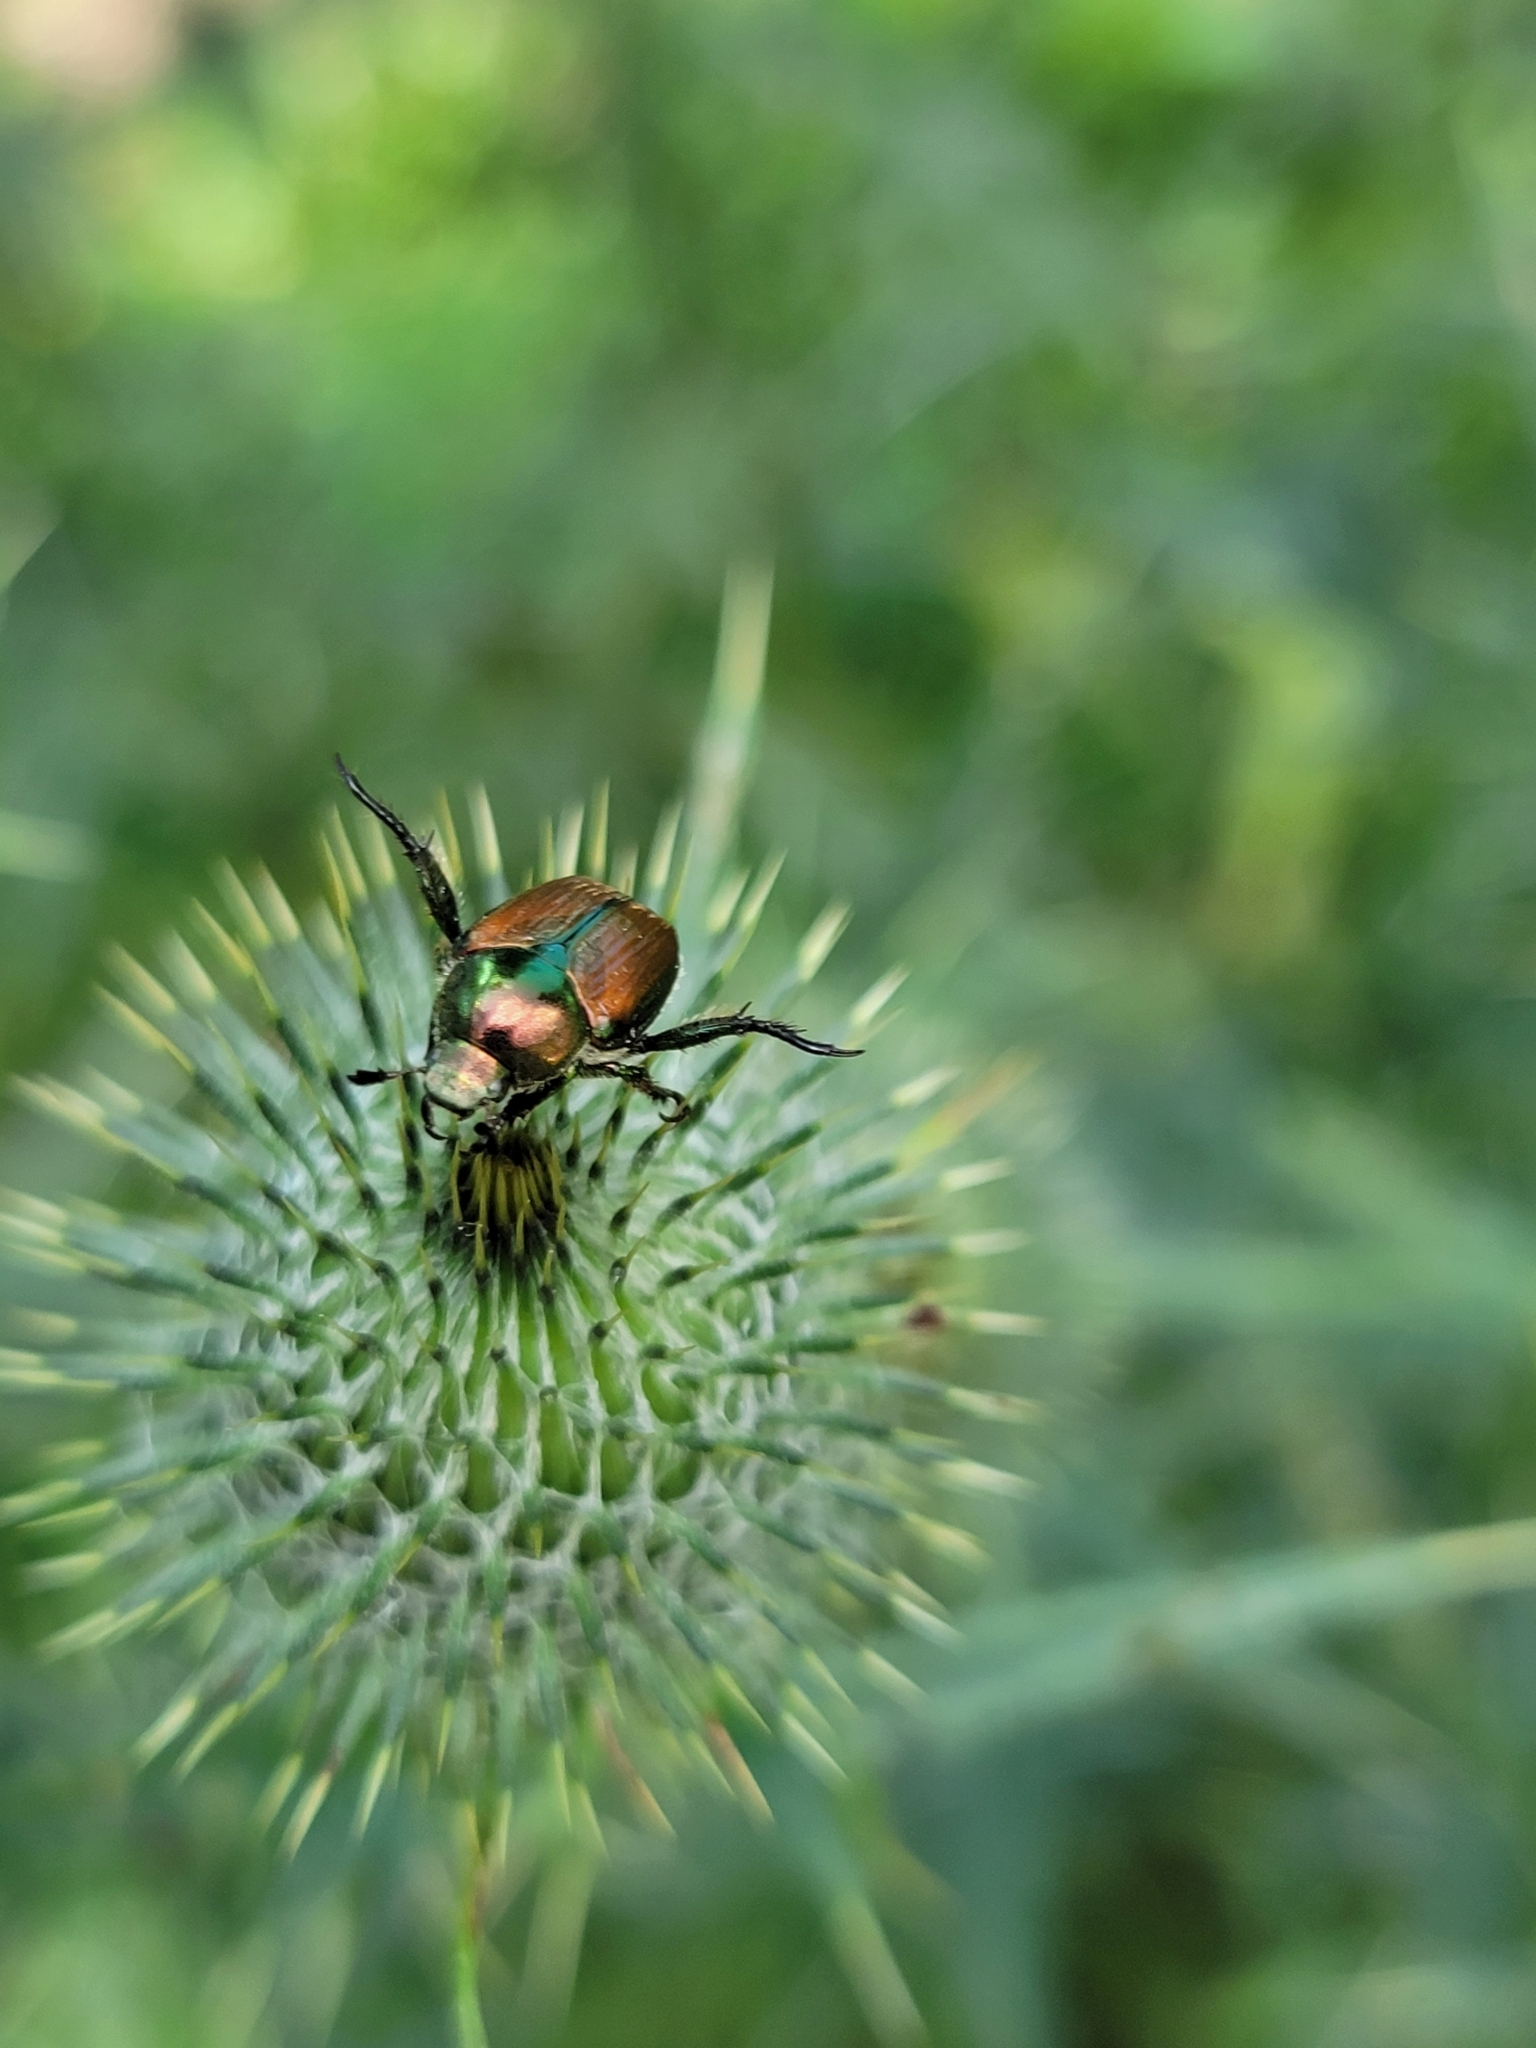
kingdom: Animalia
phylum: Arthropoda
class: Insecta
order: Coleoptera
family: Scarabaeidae
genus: Popillia
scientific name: Popillia japonica
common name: Japanese beetle
